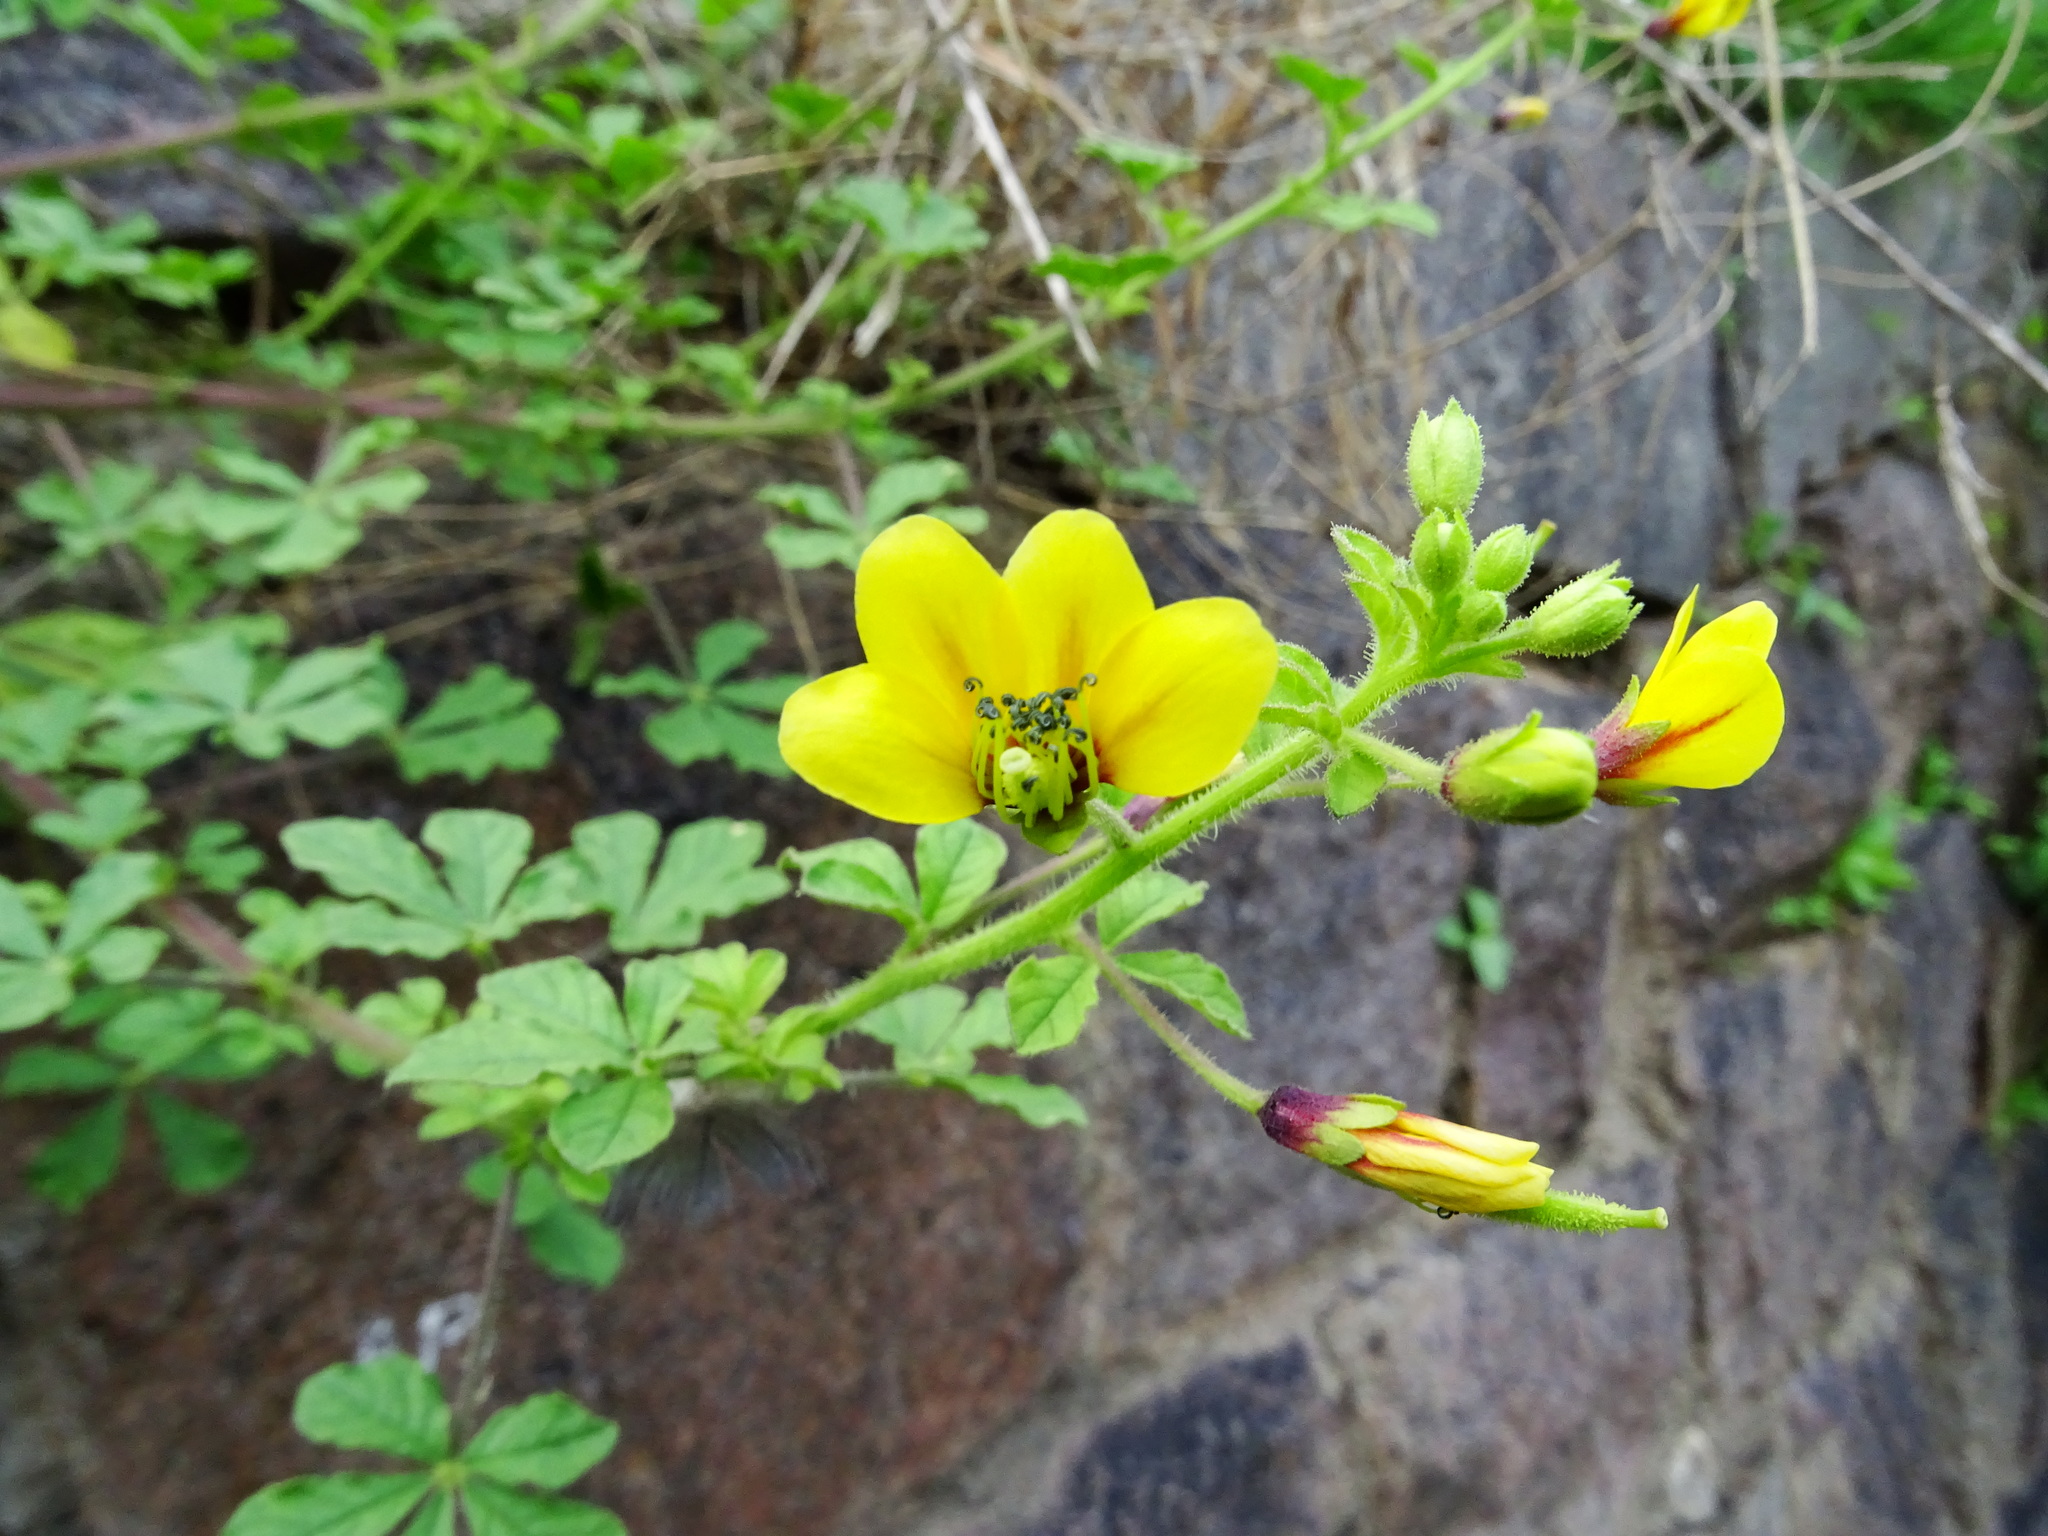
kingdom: Plantae
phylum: Tracheophyta
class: Magnoliopsida
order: Brassicales
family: Cleomaceae
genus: Arivela
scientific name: Arivela viscosa
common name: Asian spiderflower
